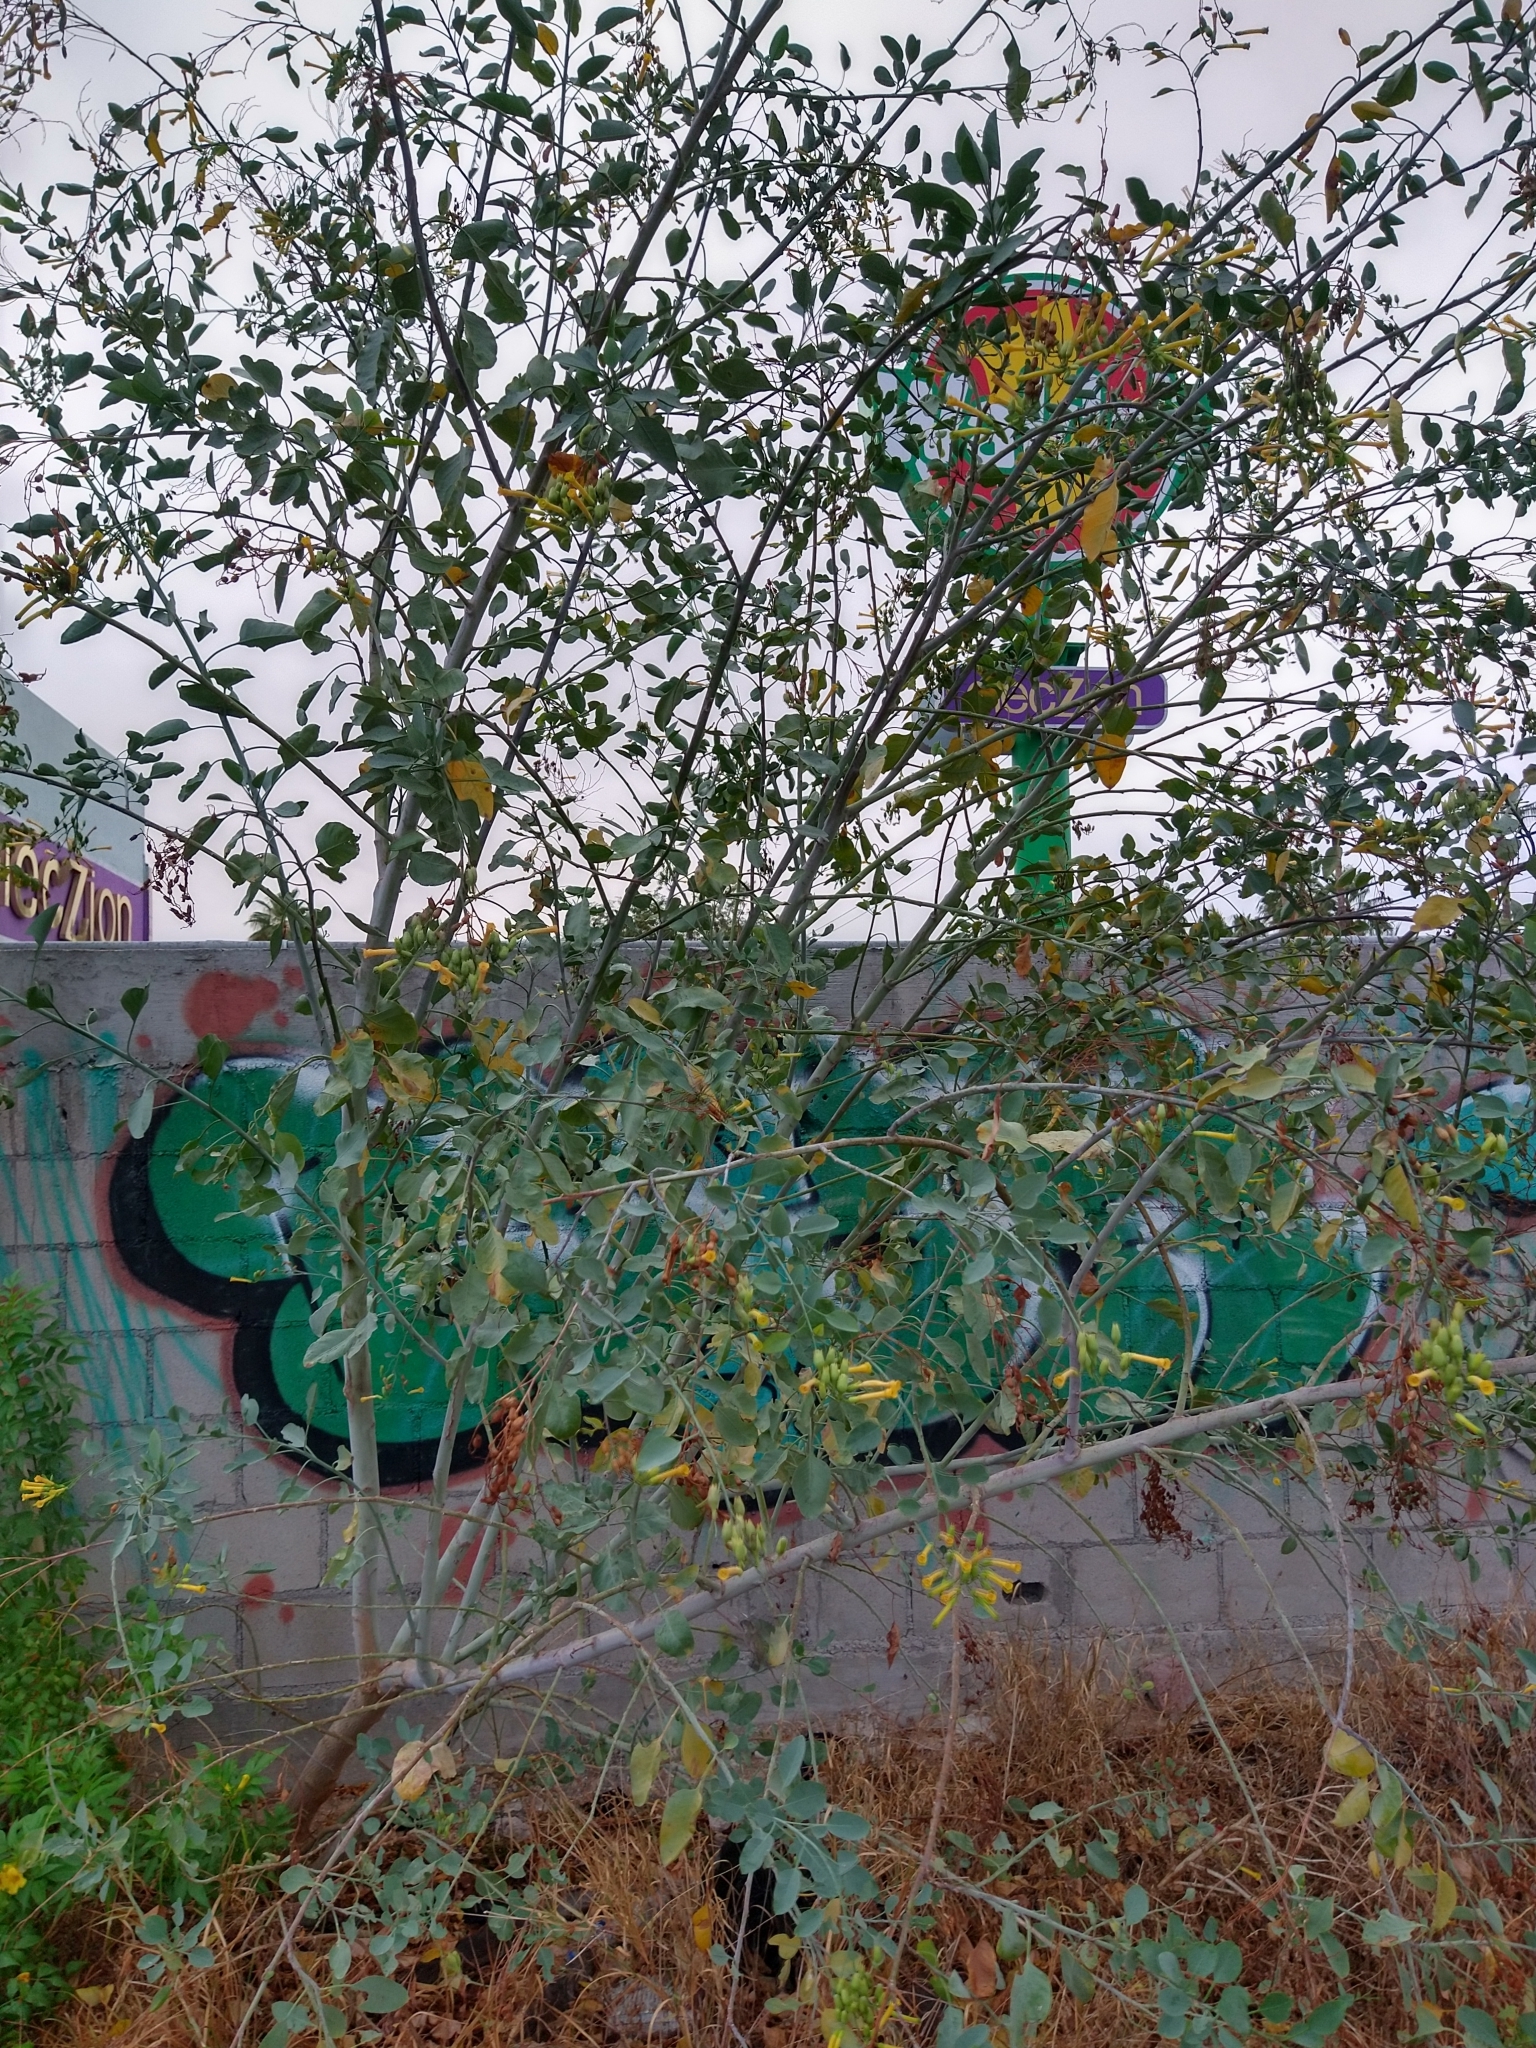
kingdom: Plantae
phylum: Tracheophyta
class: Magnoliopsida
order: Solanales
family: Solanaceae
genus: Nicotiana
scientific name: Nicotiana glauca
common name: Tree tobacco
